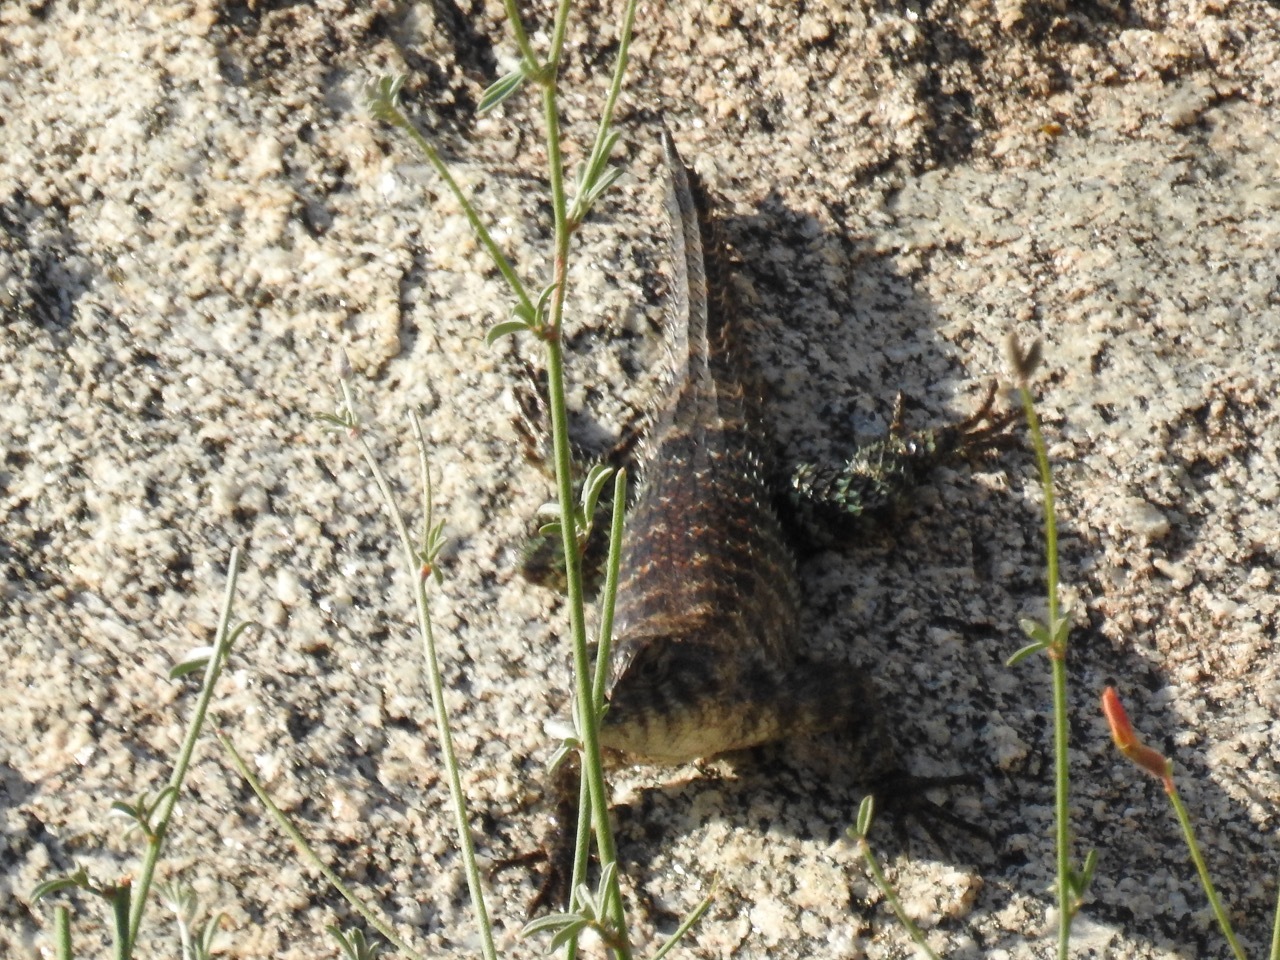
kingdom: Animalia
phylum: Chordata
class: Squamata
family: Phrynosomatidae
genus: Sceloporus
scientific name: Sceloporus orcutti
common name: Granite spiny lizard
